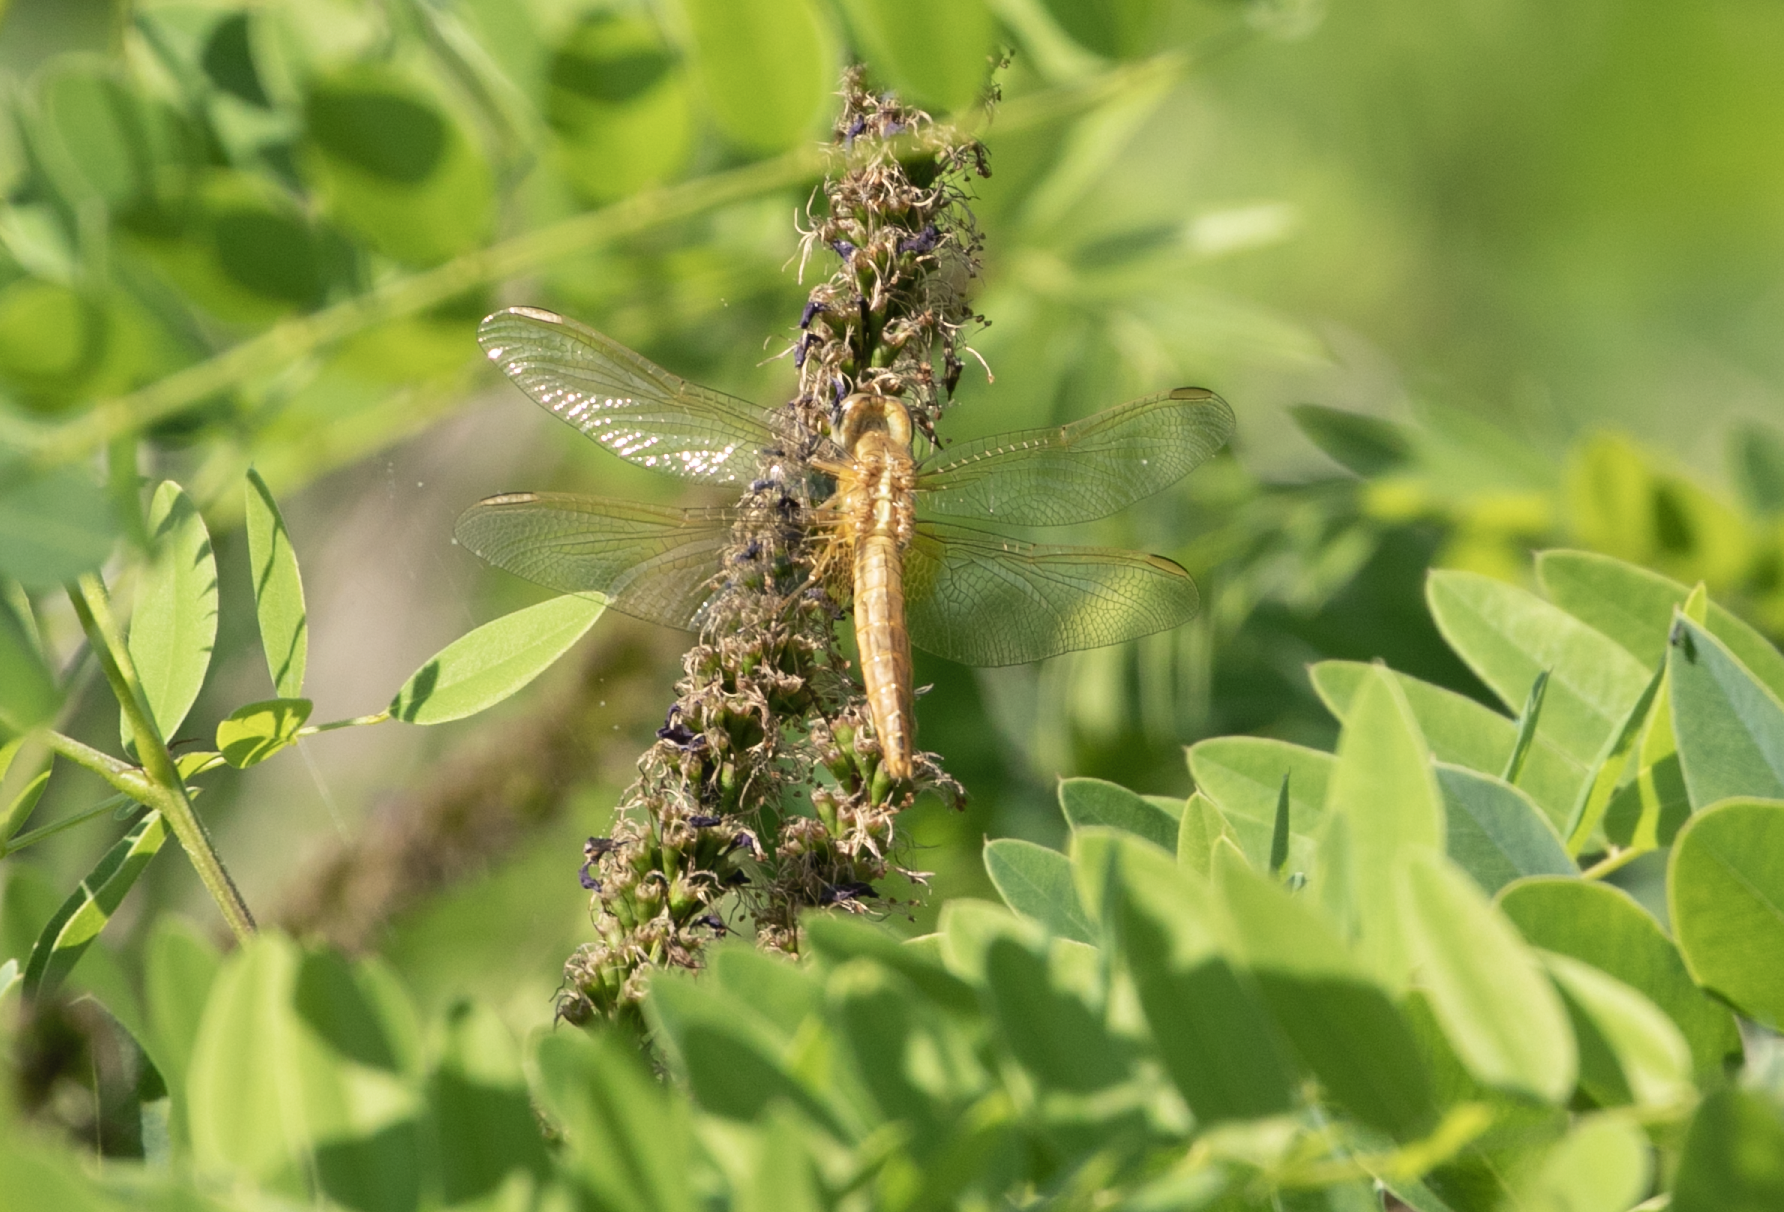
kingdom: Animalia
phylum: Arthropoda
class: Insecta
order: Odonata
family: Libellulidae
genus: Crocothemis
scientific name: Crocothemis erythraea
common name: Scarlet dragonfly
